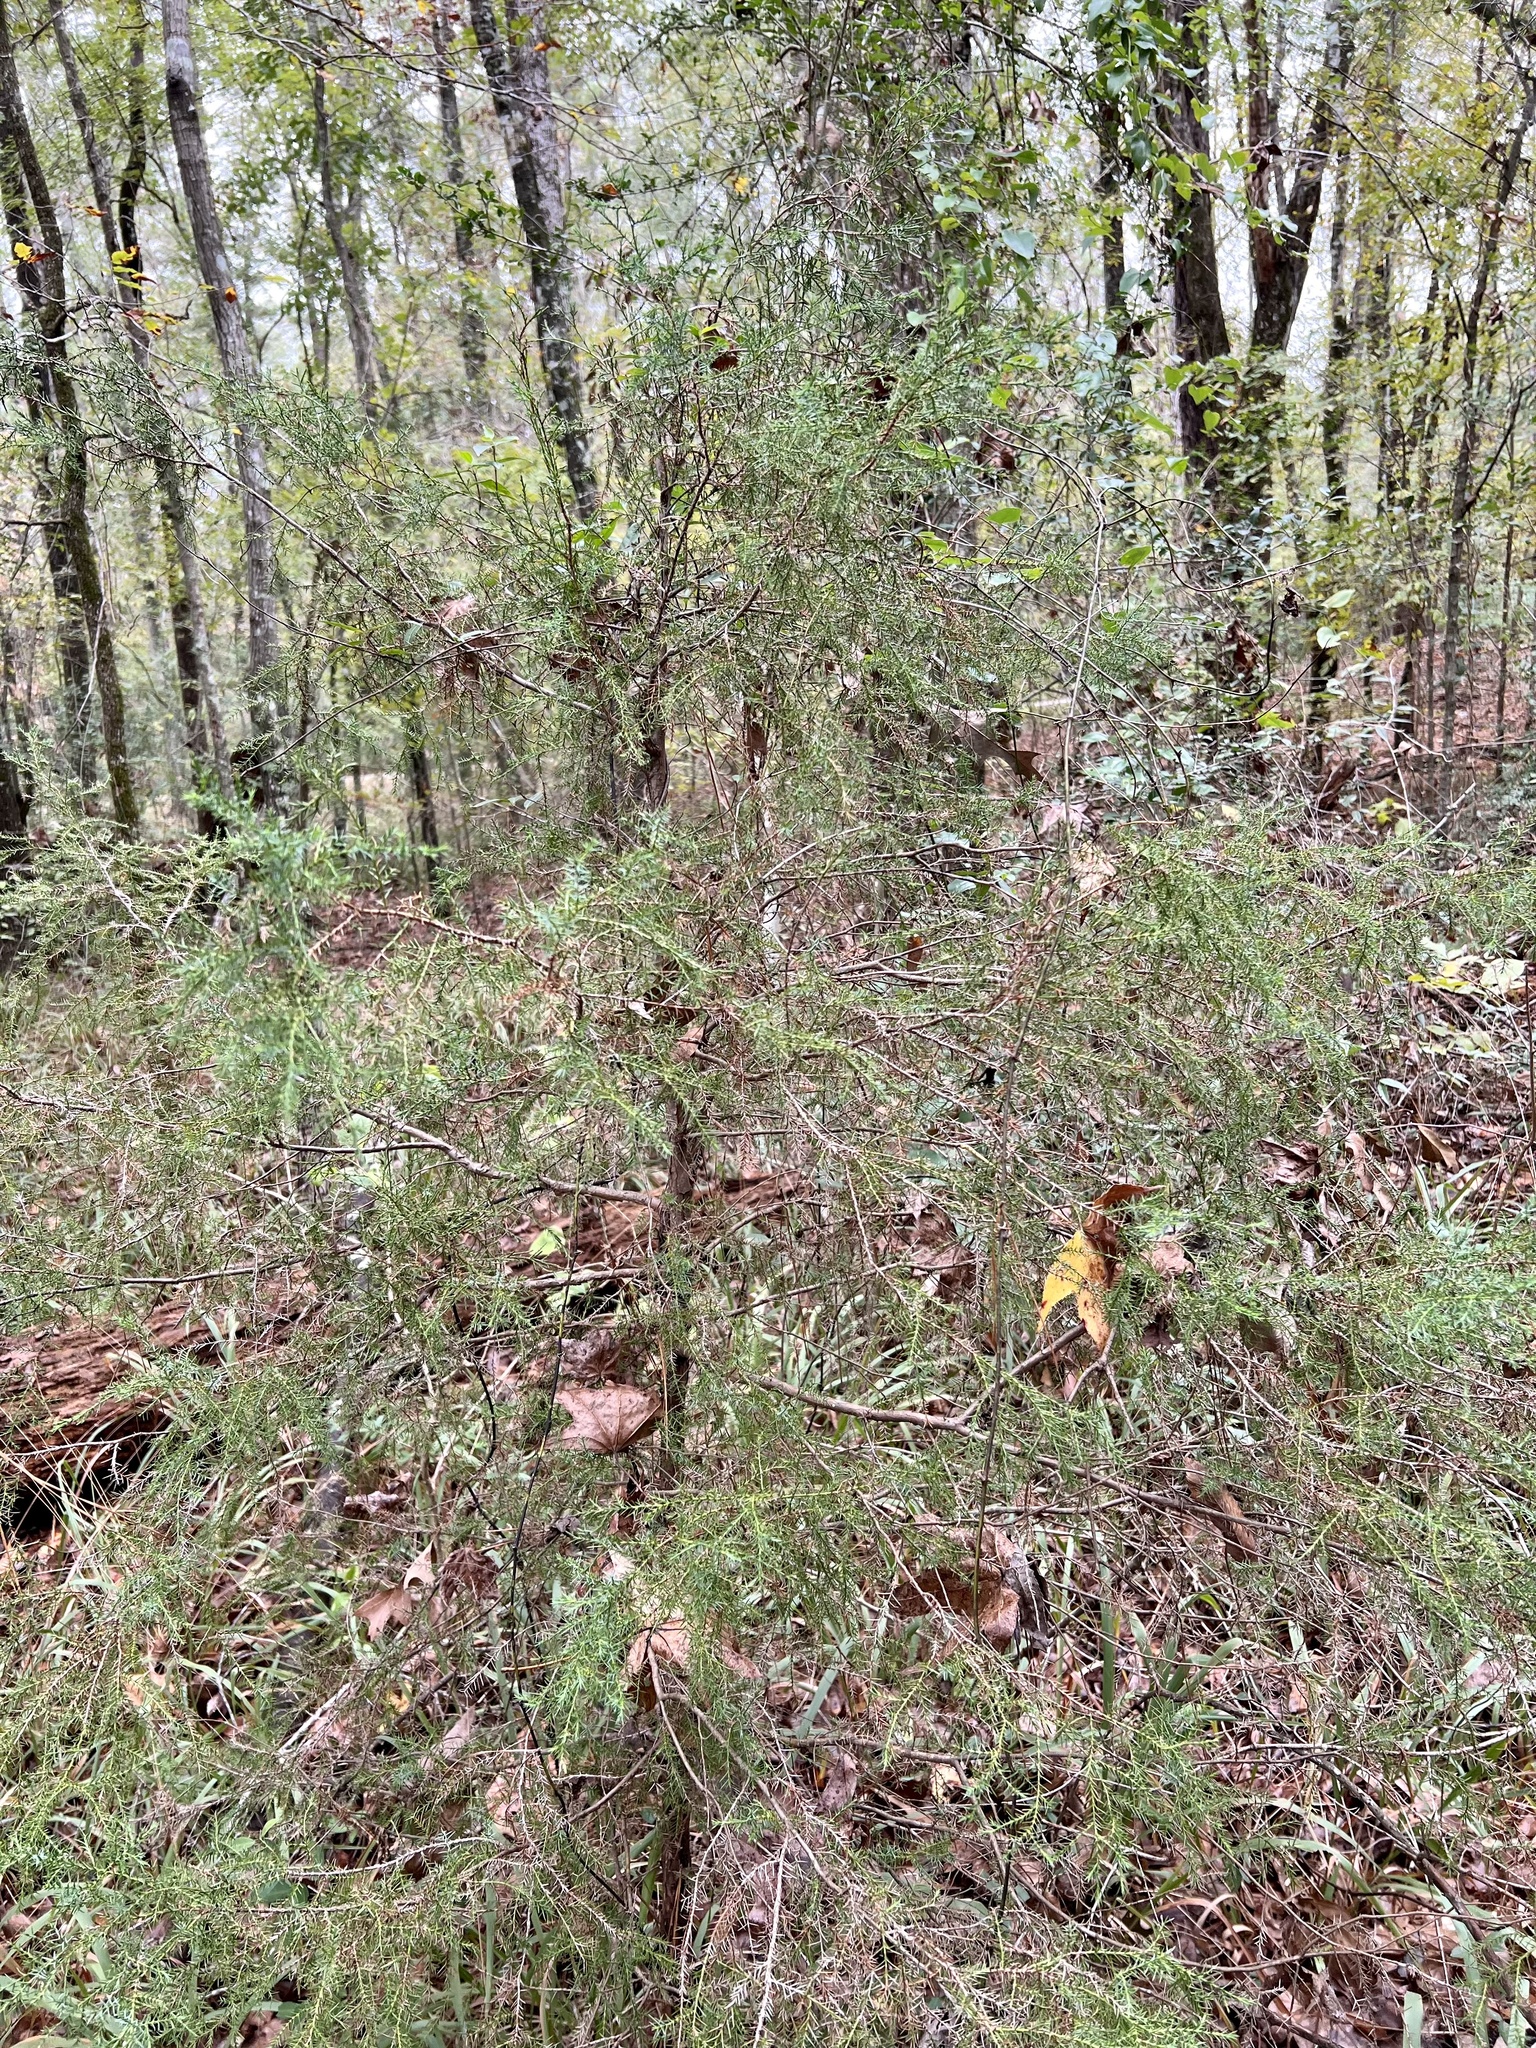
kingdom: Plantae
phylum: Tracheophyta
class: Pinopsida
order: Pinales
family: Cupressaceae
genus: Juniperus
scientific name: Juniperus virginiana
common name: Red juniper
